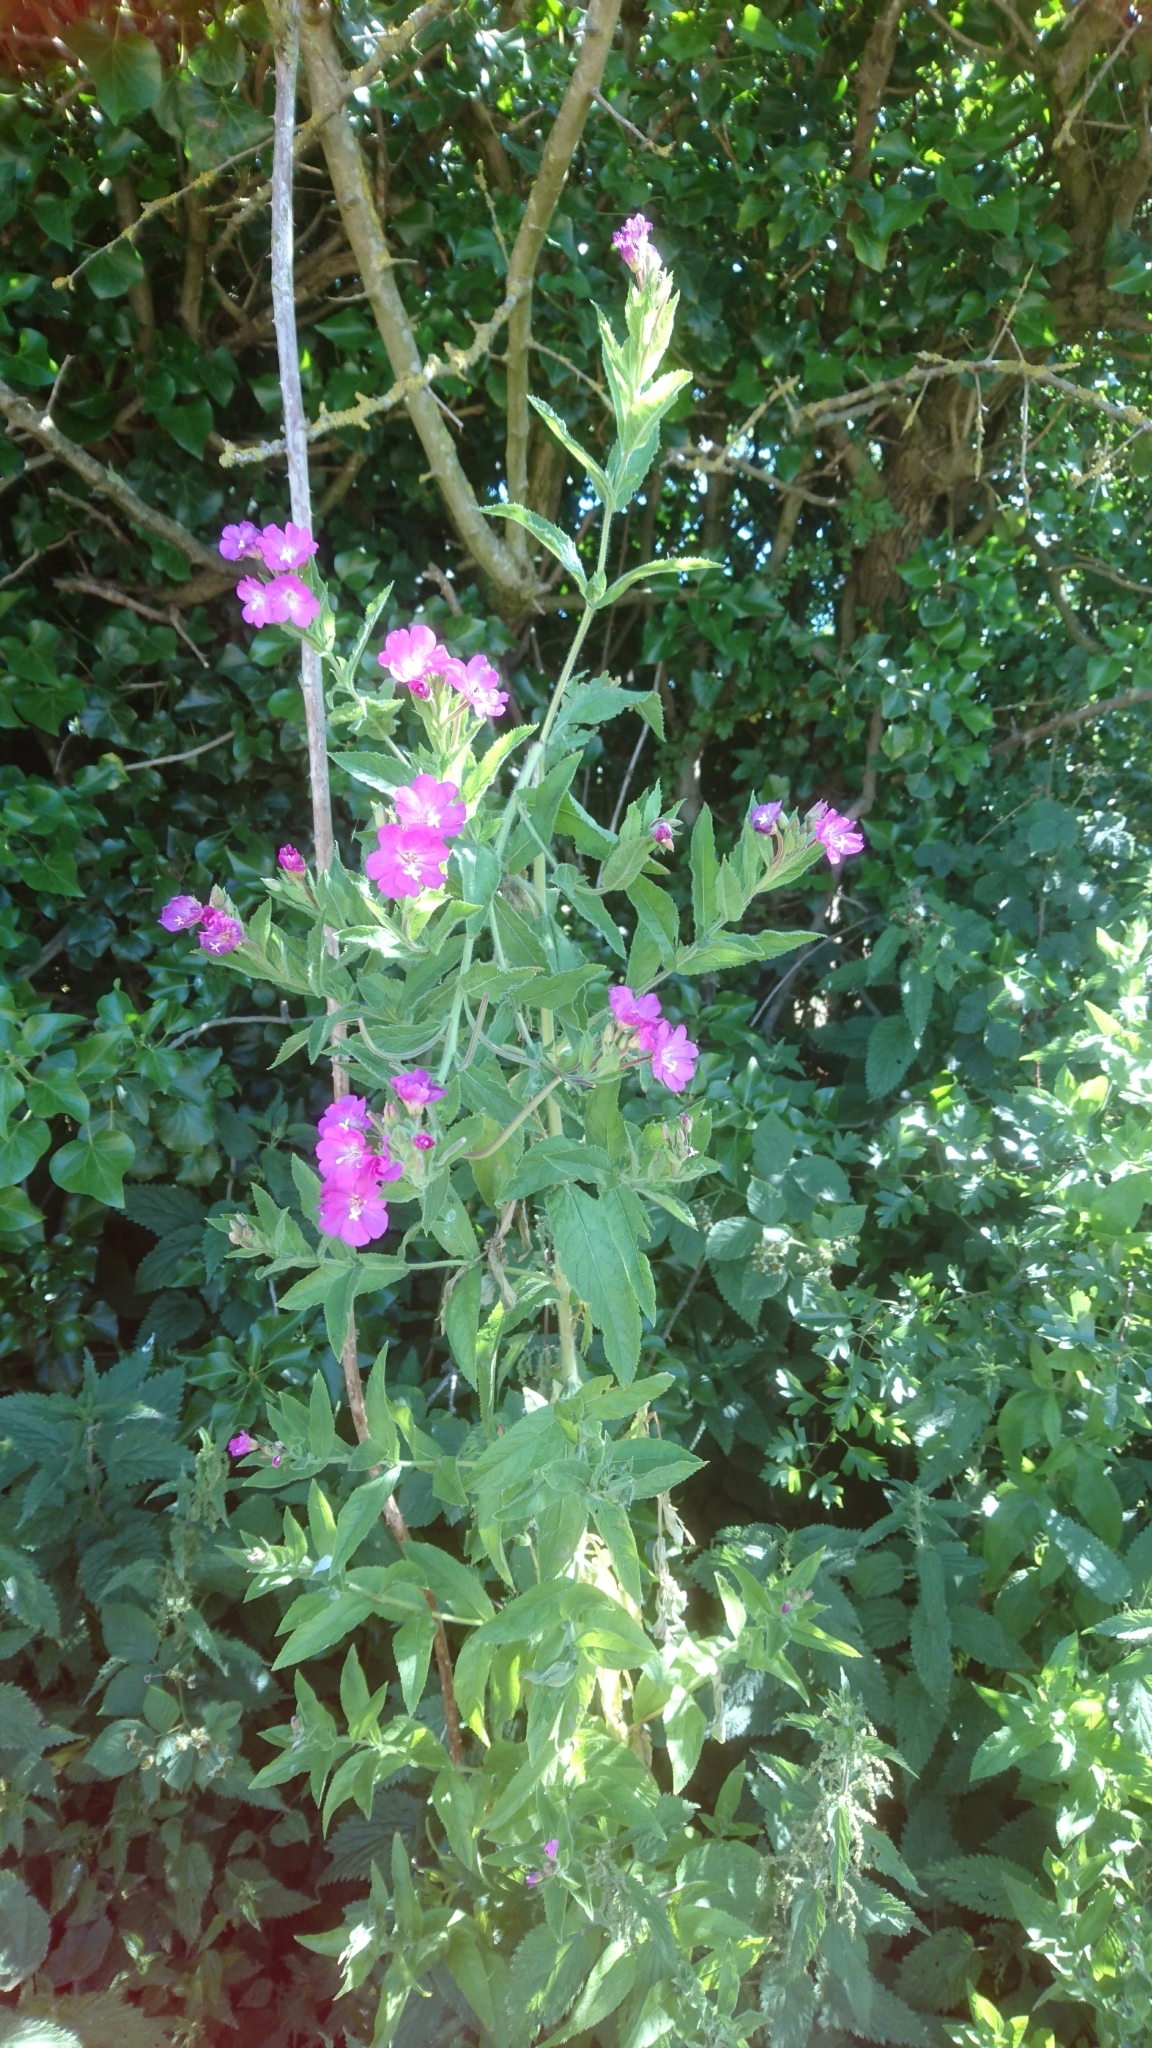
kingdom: Plantae
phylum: Tracheophyta
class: Magnoliopsida
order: Myrtales
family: Onagraceae
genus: Epilobium
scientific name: Epilobium hirsutum
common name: Great willowherb
